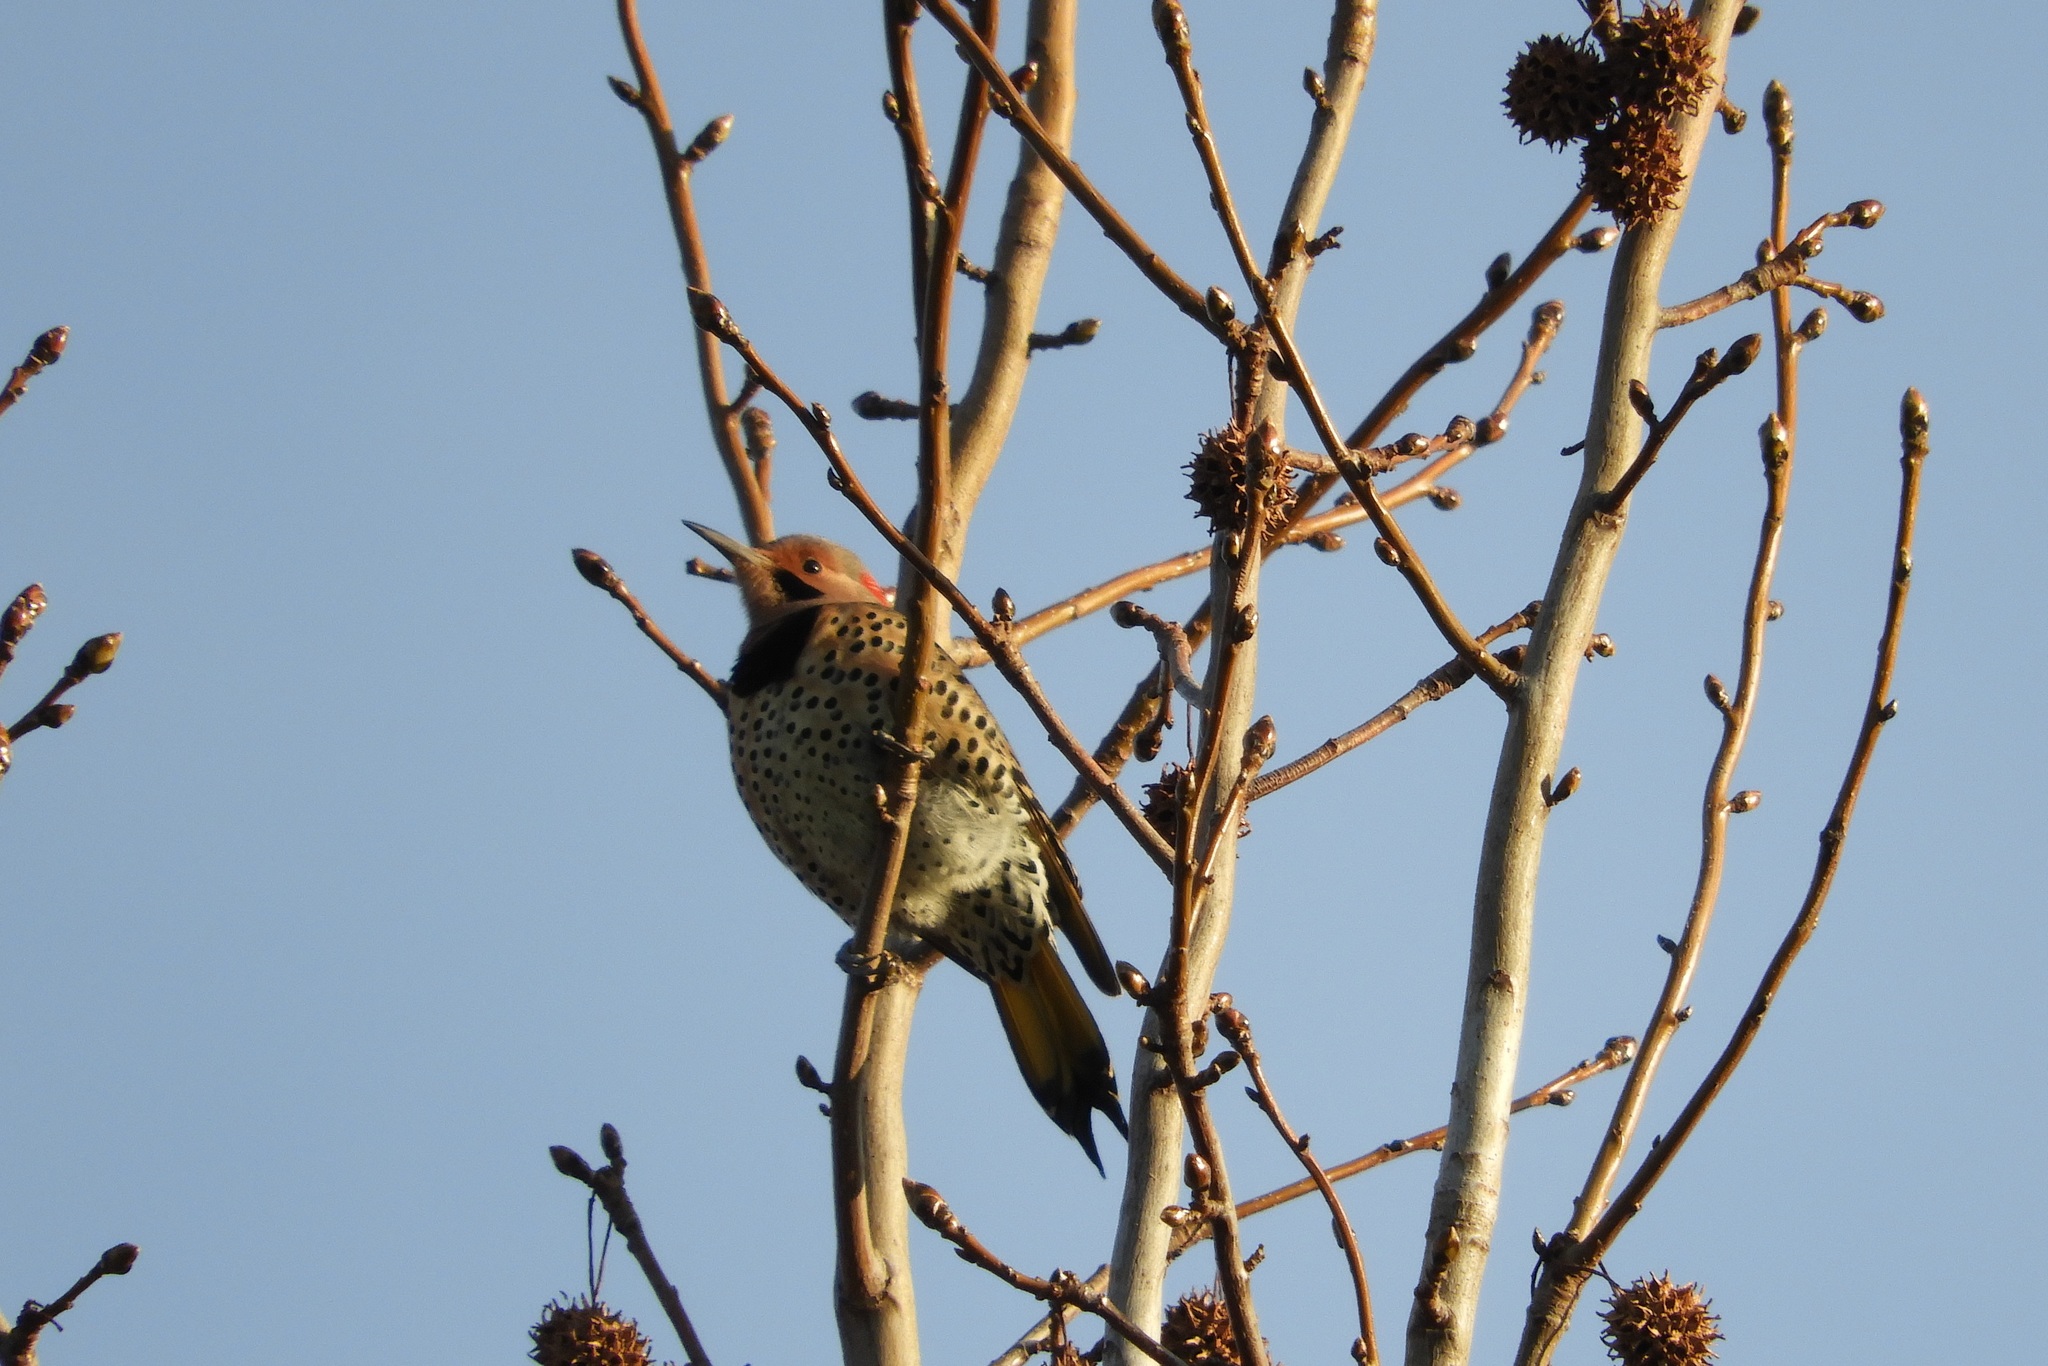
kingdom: Animalia
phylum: Chordata
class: Aves
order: Piciformes
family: Picidae
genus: Colaptes
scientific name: Colaptes auratus
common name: Northern flicker
